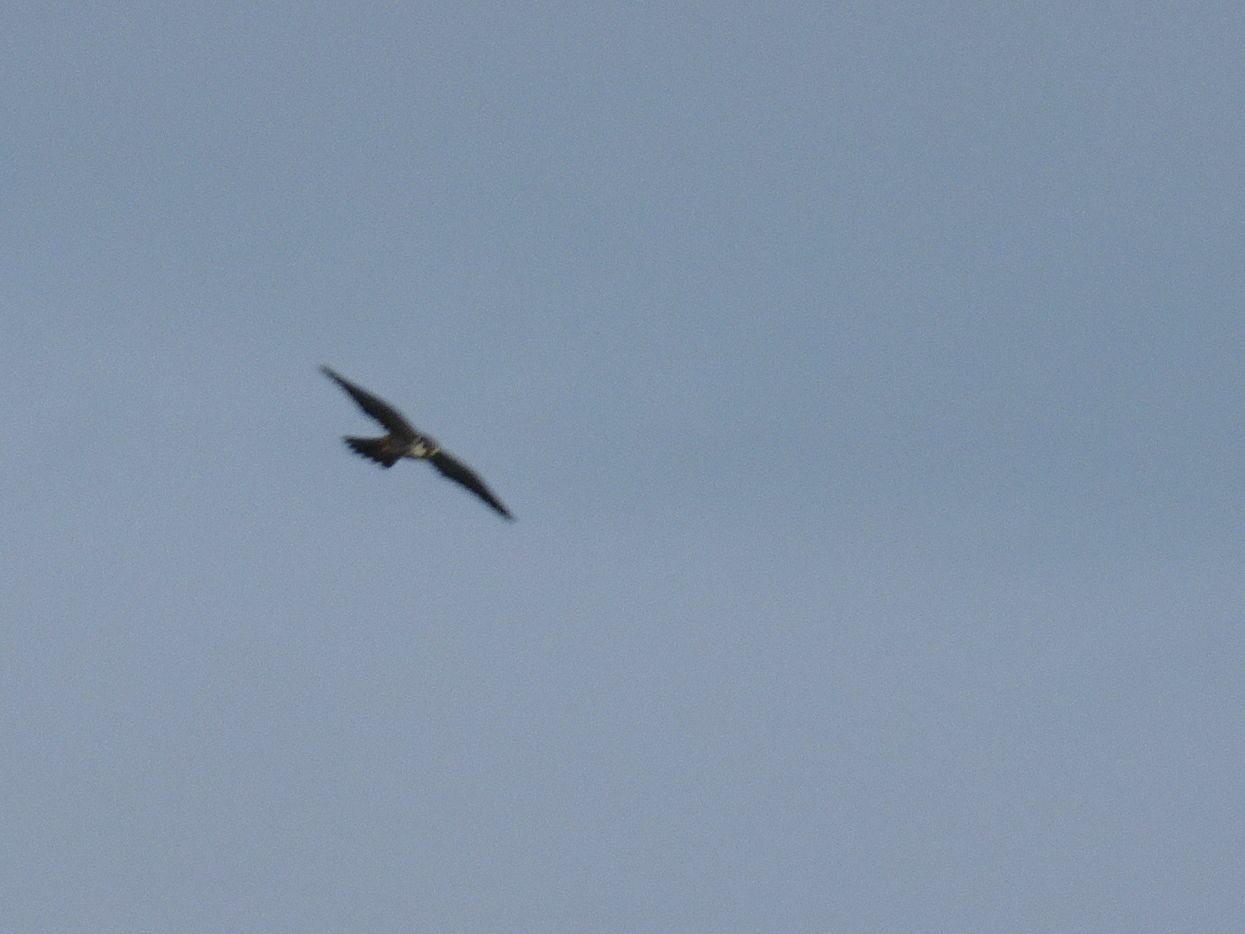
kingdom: Animalia
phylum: Chordata
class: Aves
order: Falconiformes
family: Falconidae
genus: Falco
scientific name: Falco subbuteo
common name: Eurasian hobby
